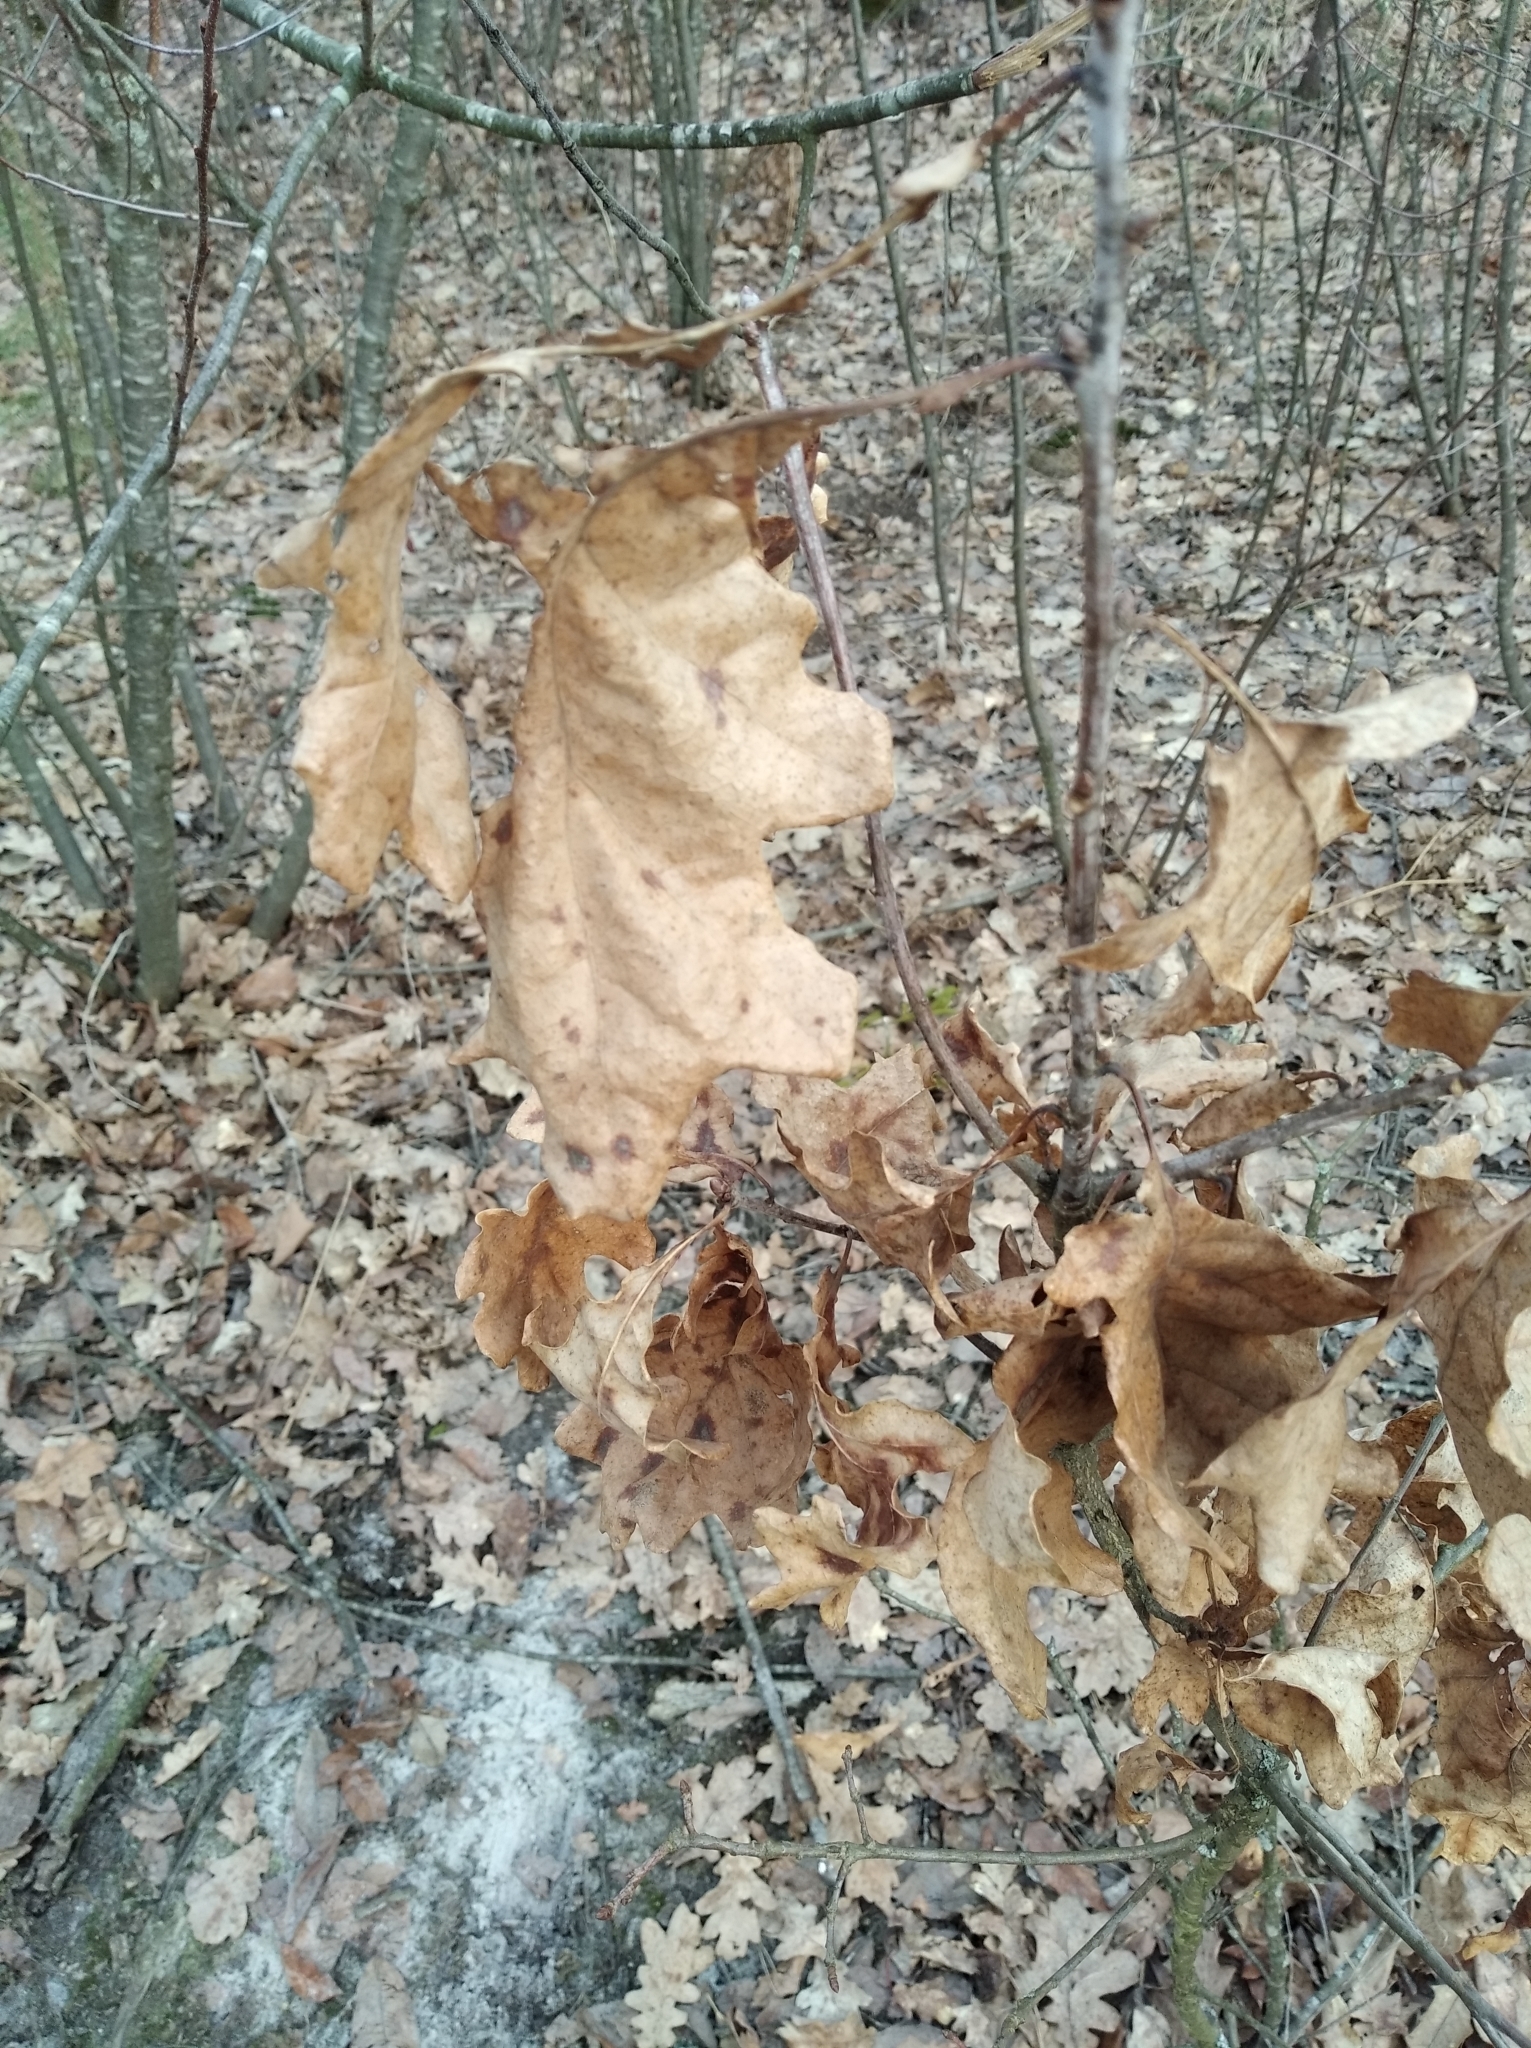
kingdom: Plantae
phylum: Tracheophyta
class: Magnoliopsida
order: Fagales
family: Fagaceae
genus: Quercus
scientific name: Quercus robur
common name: Pedunculate oak
